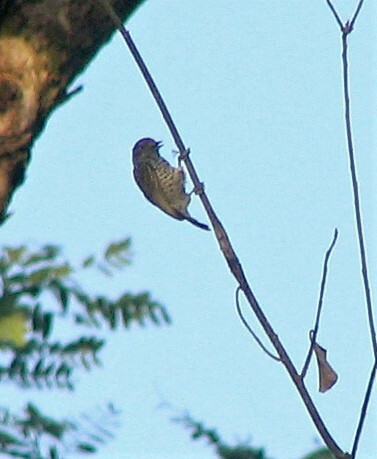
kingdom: Animalia
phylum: Chordata
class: Aves
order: Piciformes
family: Picidae
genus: Picumnus
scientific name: Picumnus cirratus
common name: White-barred piculet
